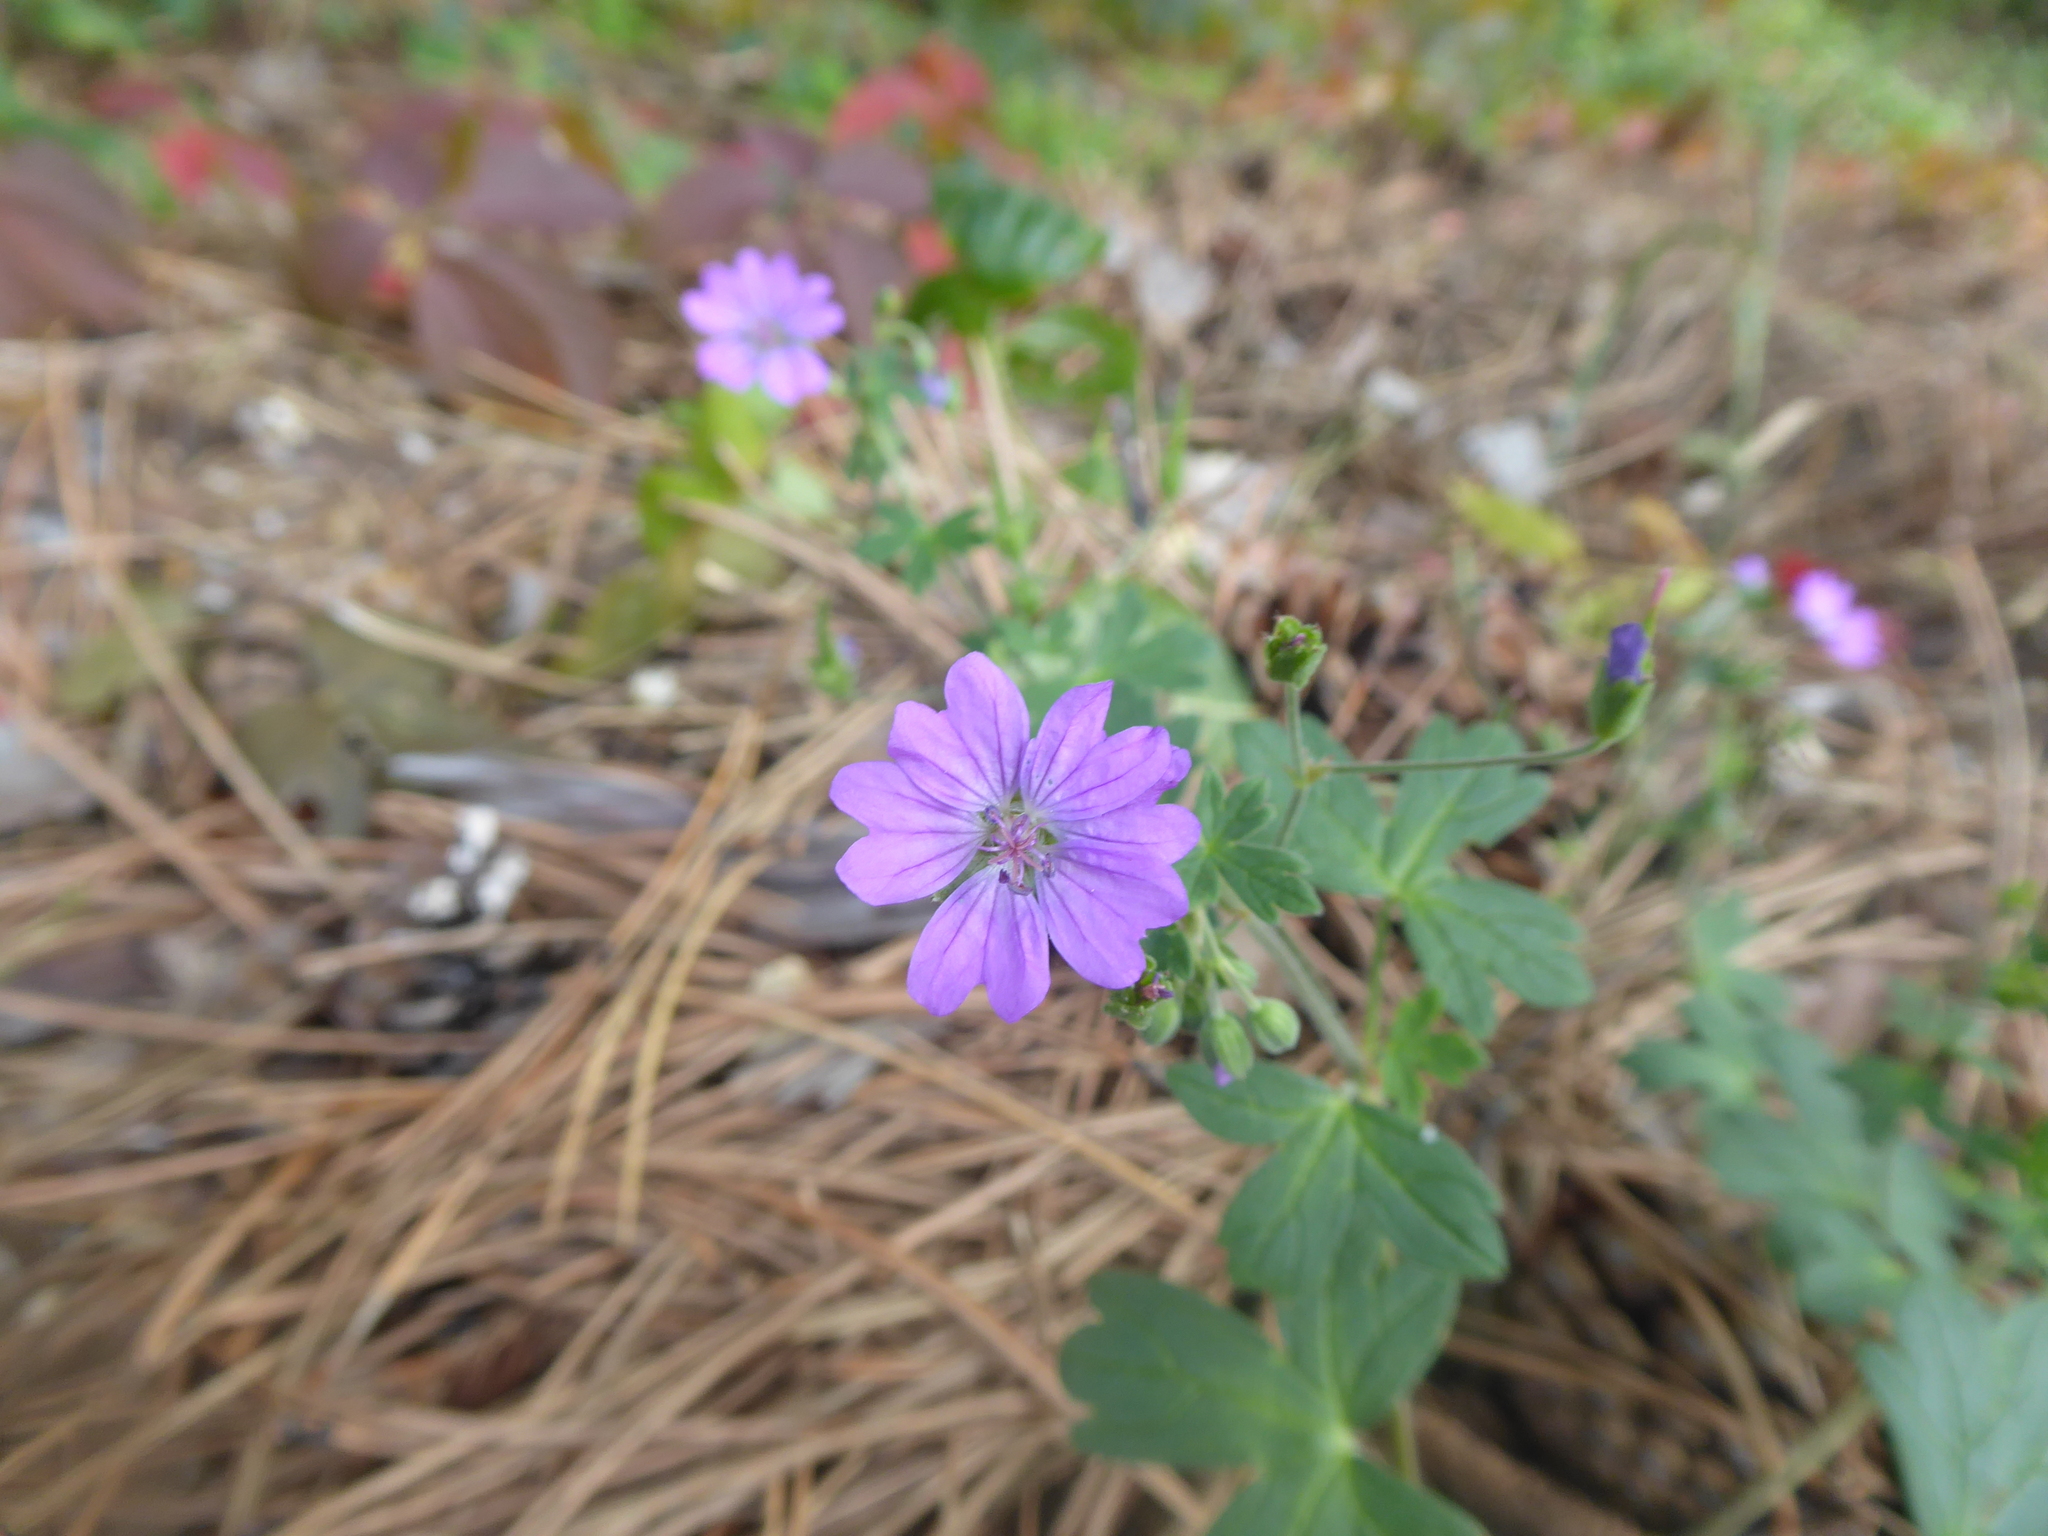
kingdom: Plantae
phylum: Tracheophyta
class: Magnoliopsida
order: Geraniales
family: Geraniaceae
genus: Geranium
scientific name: Geranium pyrenaicum
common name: Hedgerow crane's-bill
